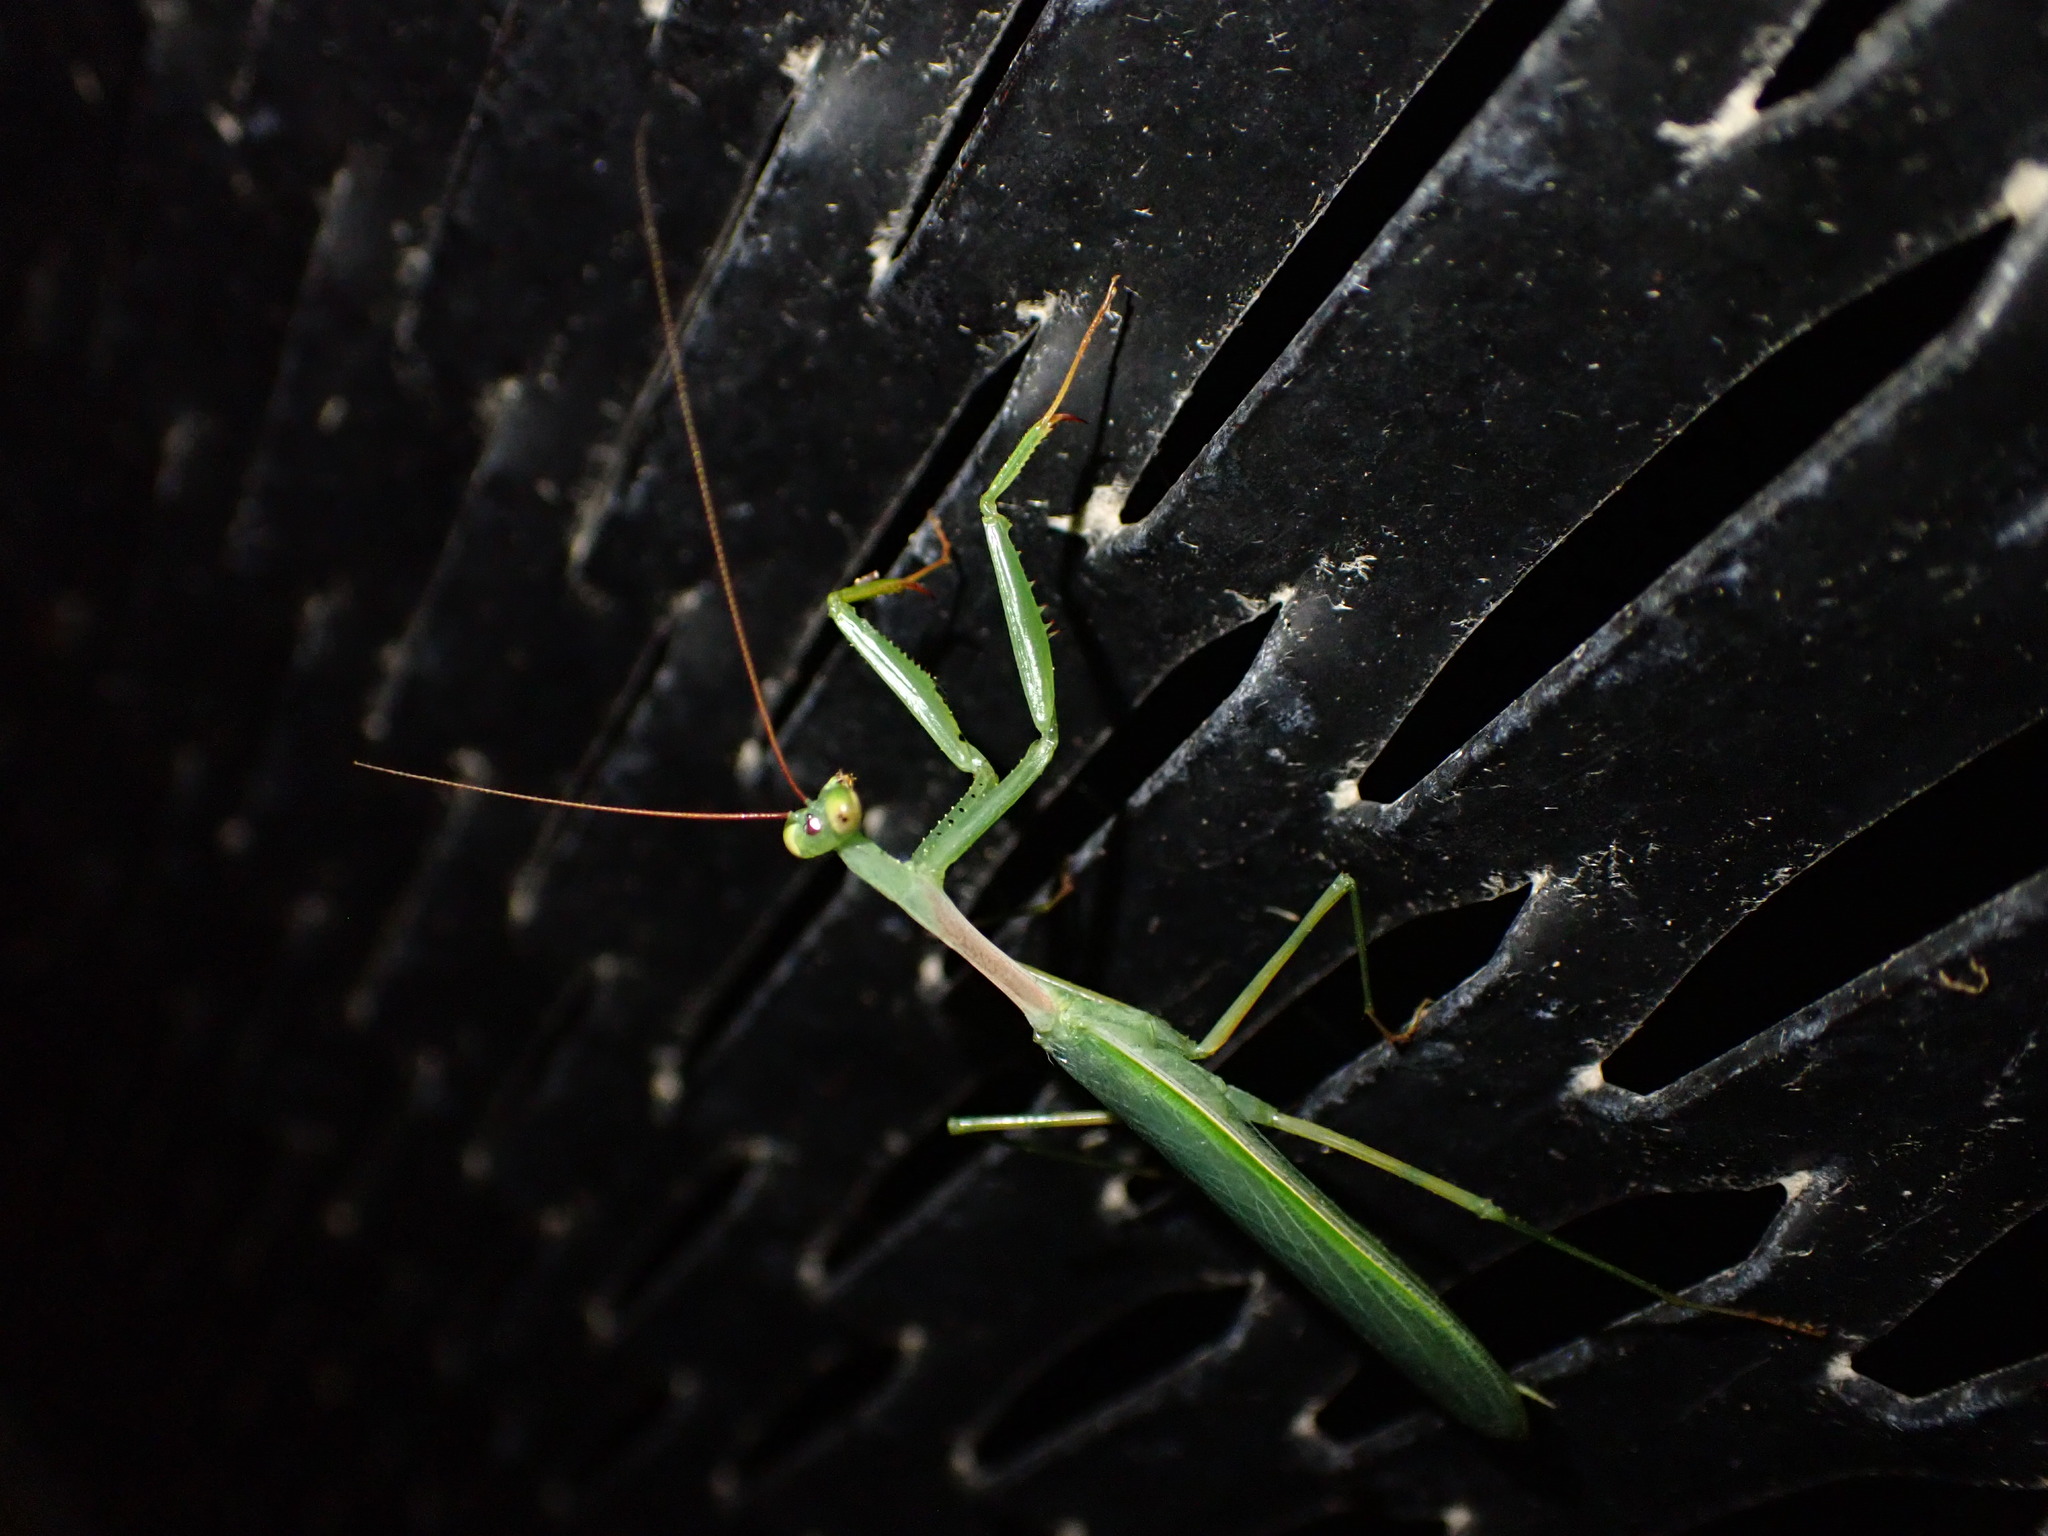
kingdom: Animalia
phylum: Arthropoda
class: Insecta
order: Mantodea
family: Miomantidae
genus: Miomantis
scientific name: Miomantis caffra
